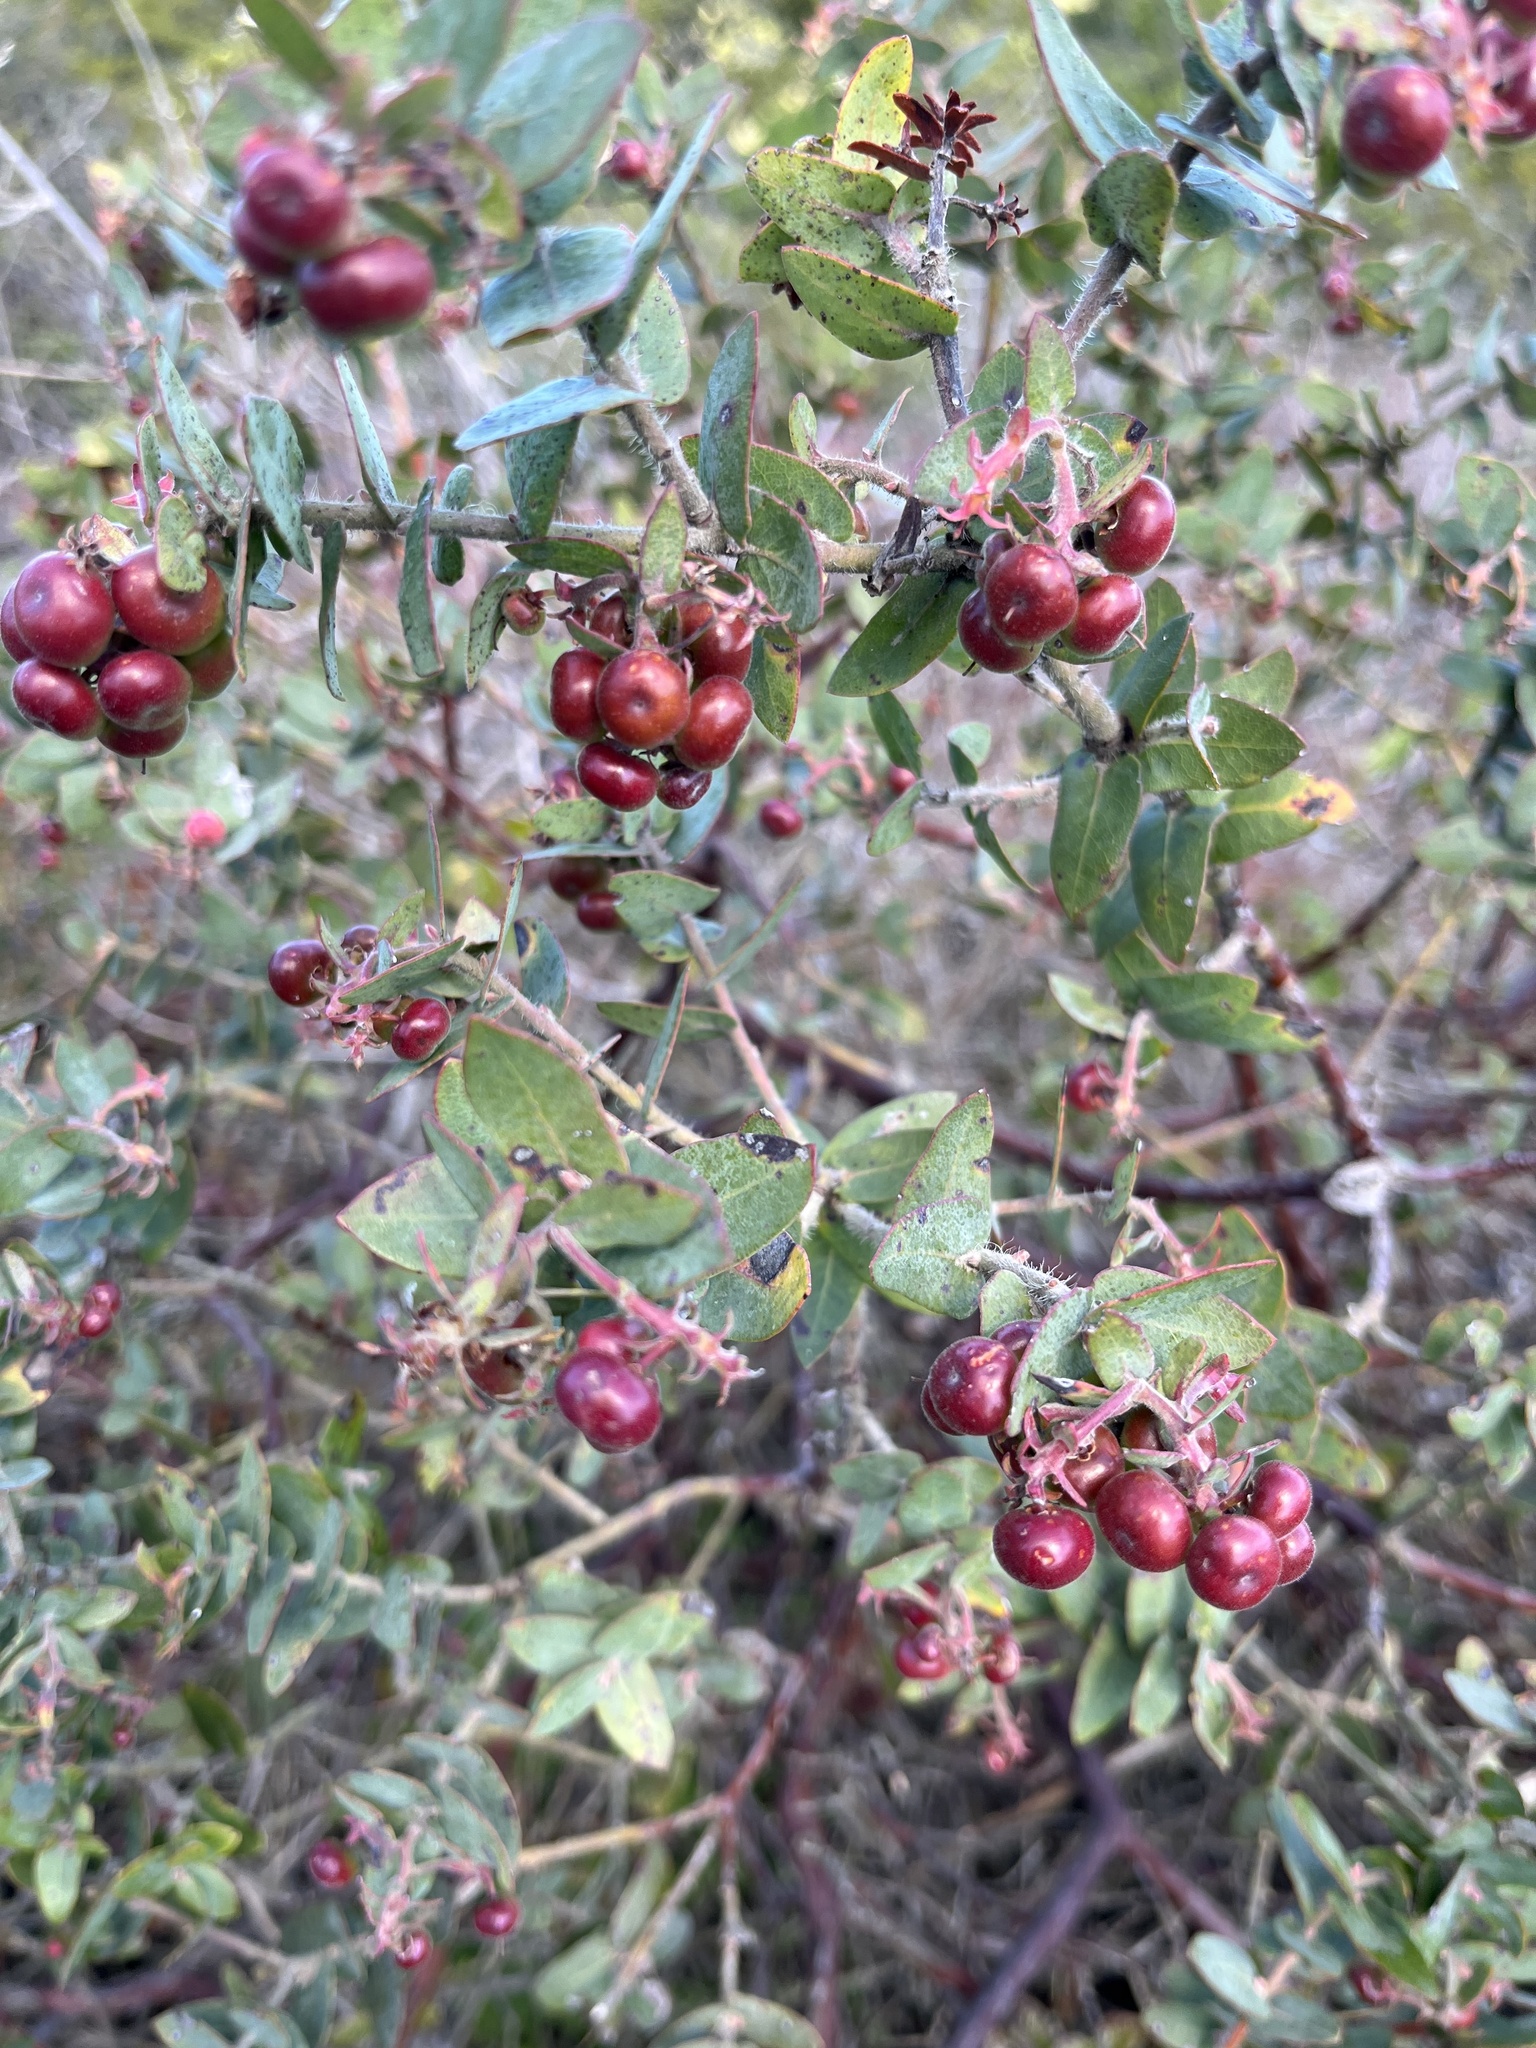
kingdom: Plantae
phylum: Tracheophyta
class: Magnoliopsida
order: Ericales
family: Ericaceae
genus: Arctostaphylos
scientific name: Arctostaphylos pajaroensis
